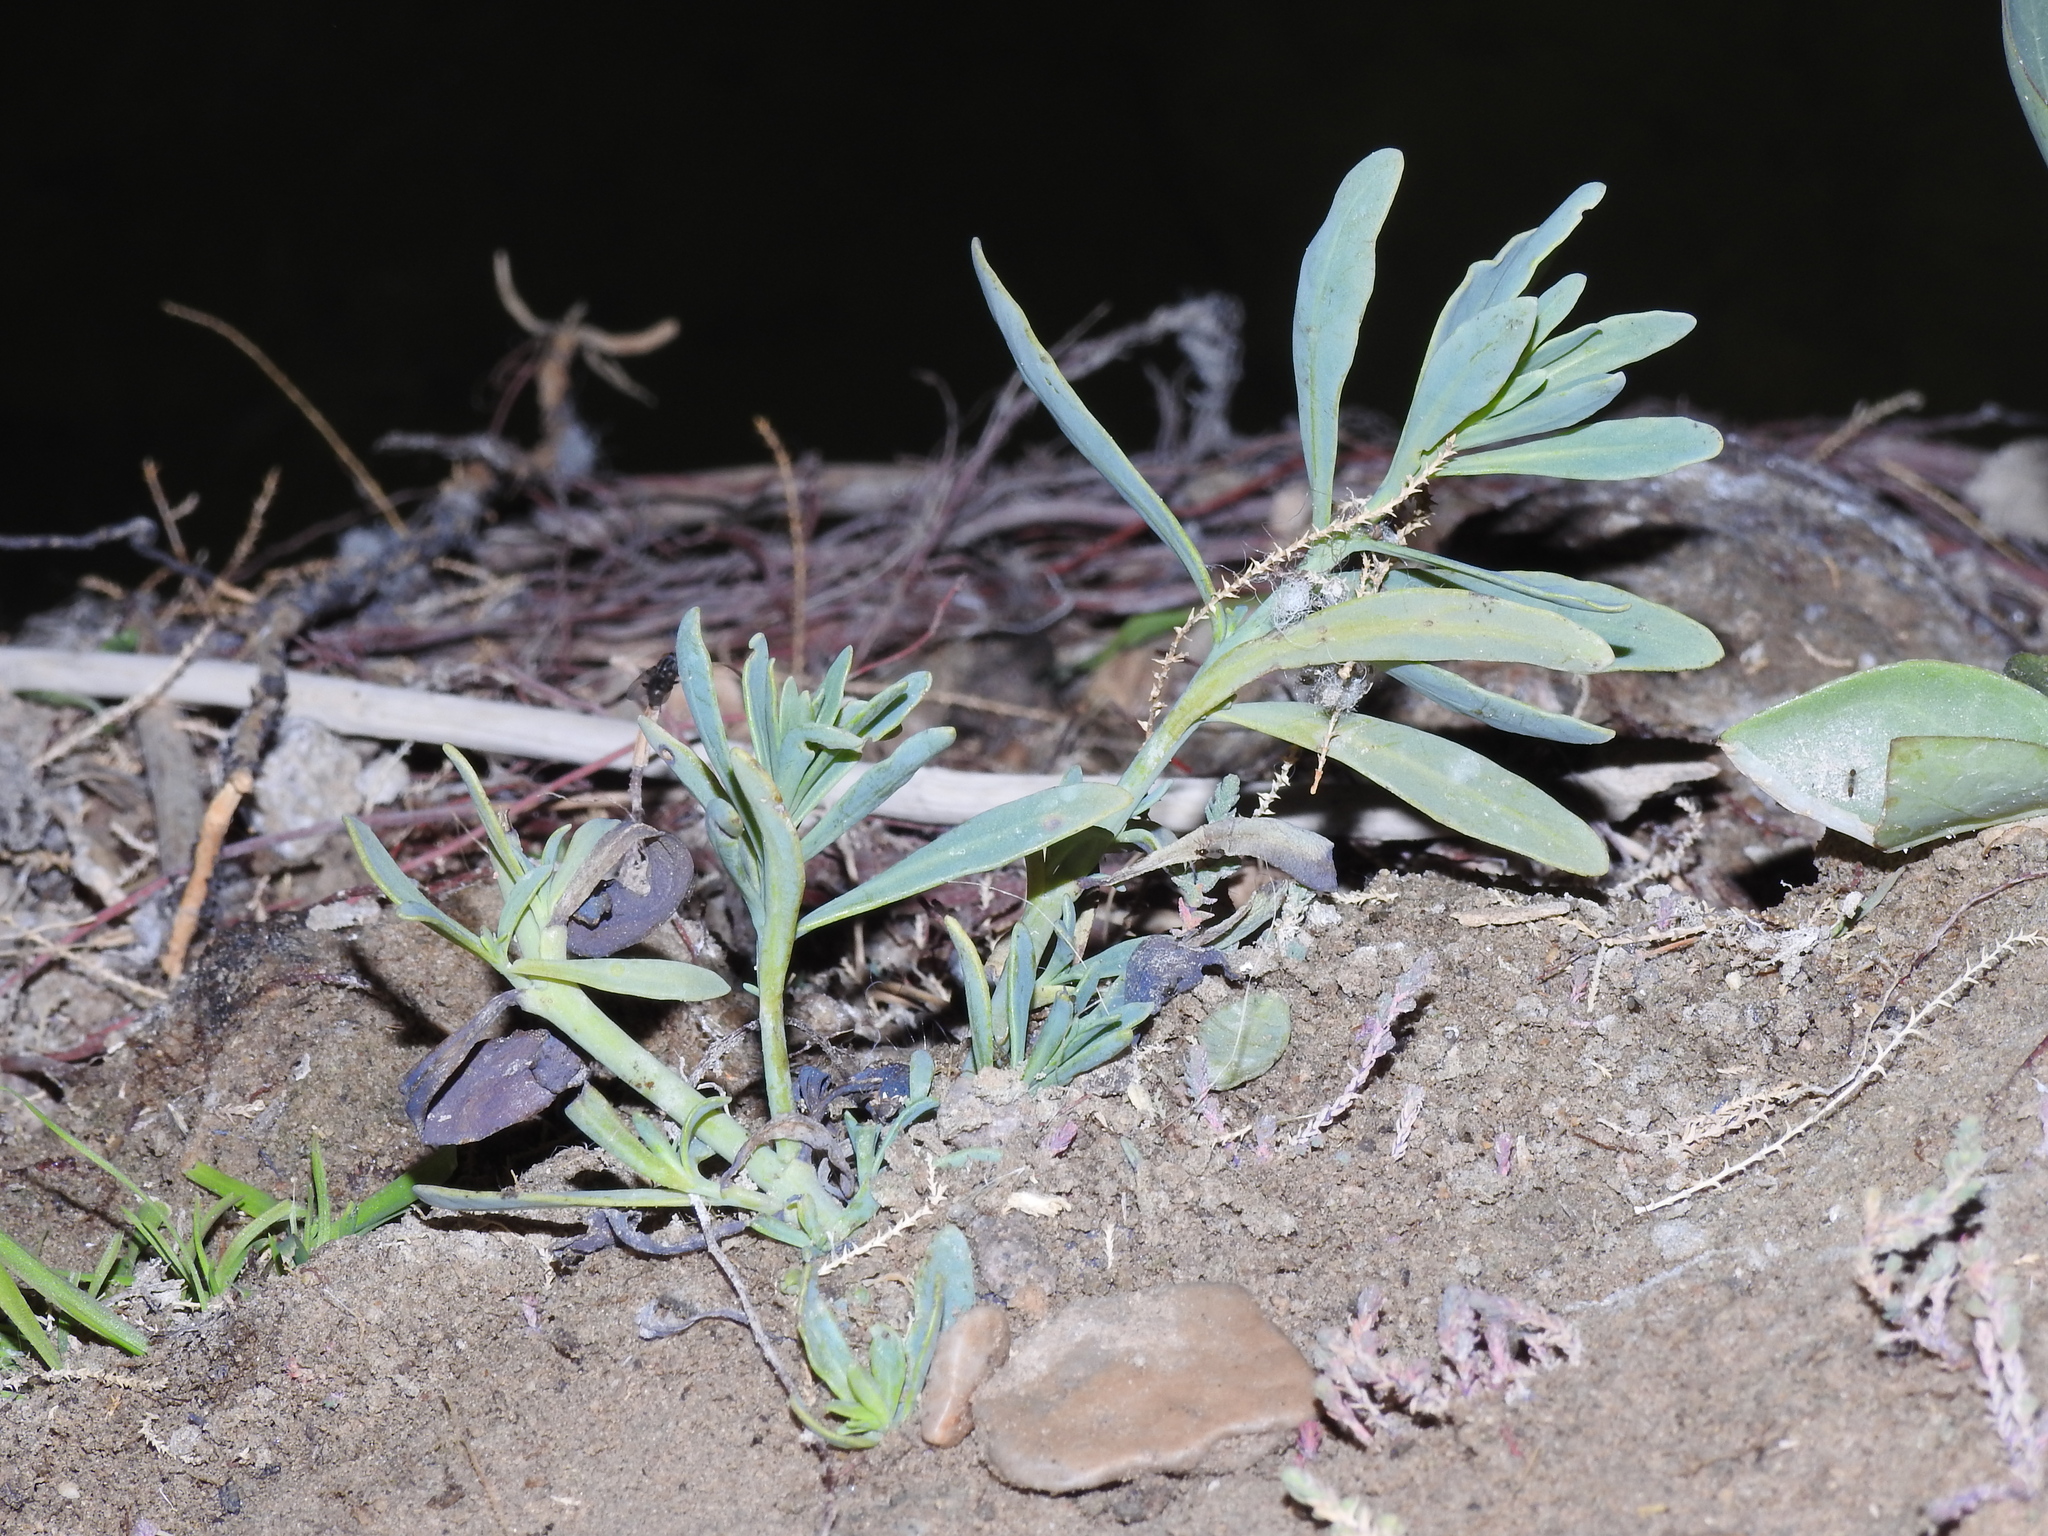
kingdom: Plantae
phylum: Tracheophyta
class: Magnoliopsida
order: Boraginales
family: Heliotropiaceae
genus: Heliotropium
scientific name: Heliotropium curassavicum
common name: Seaside heliotrope
